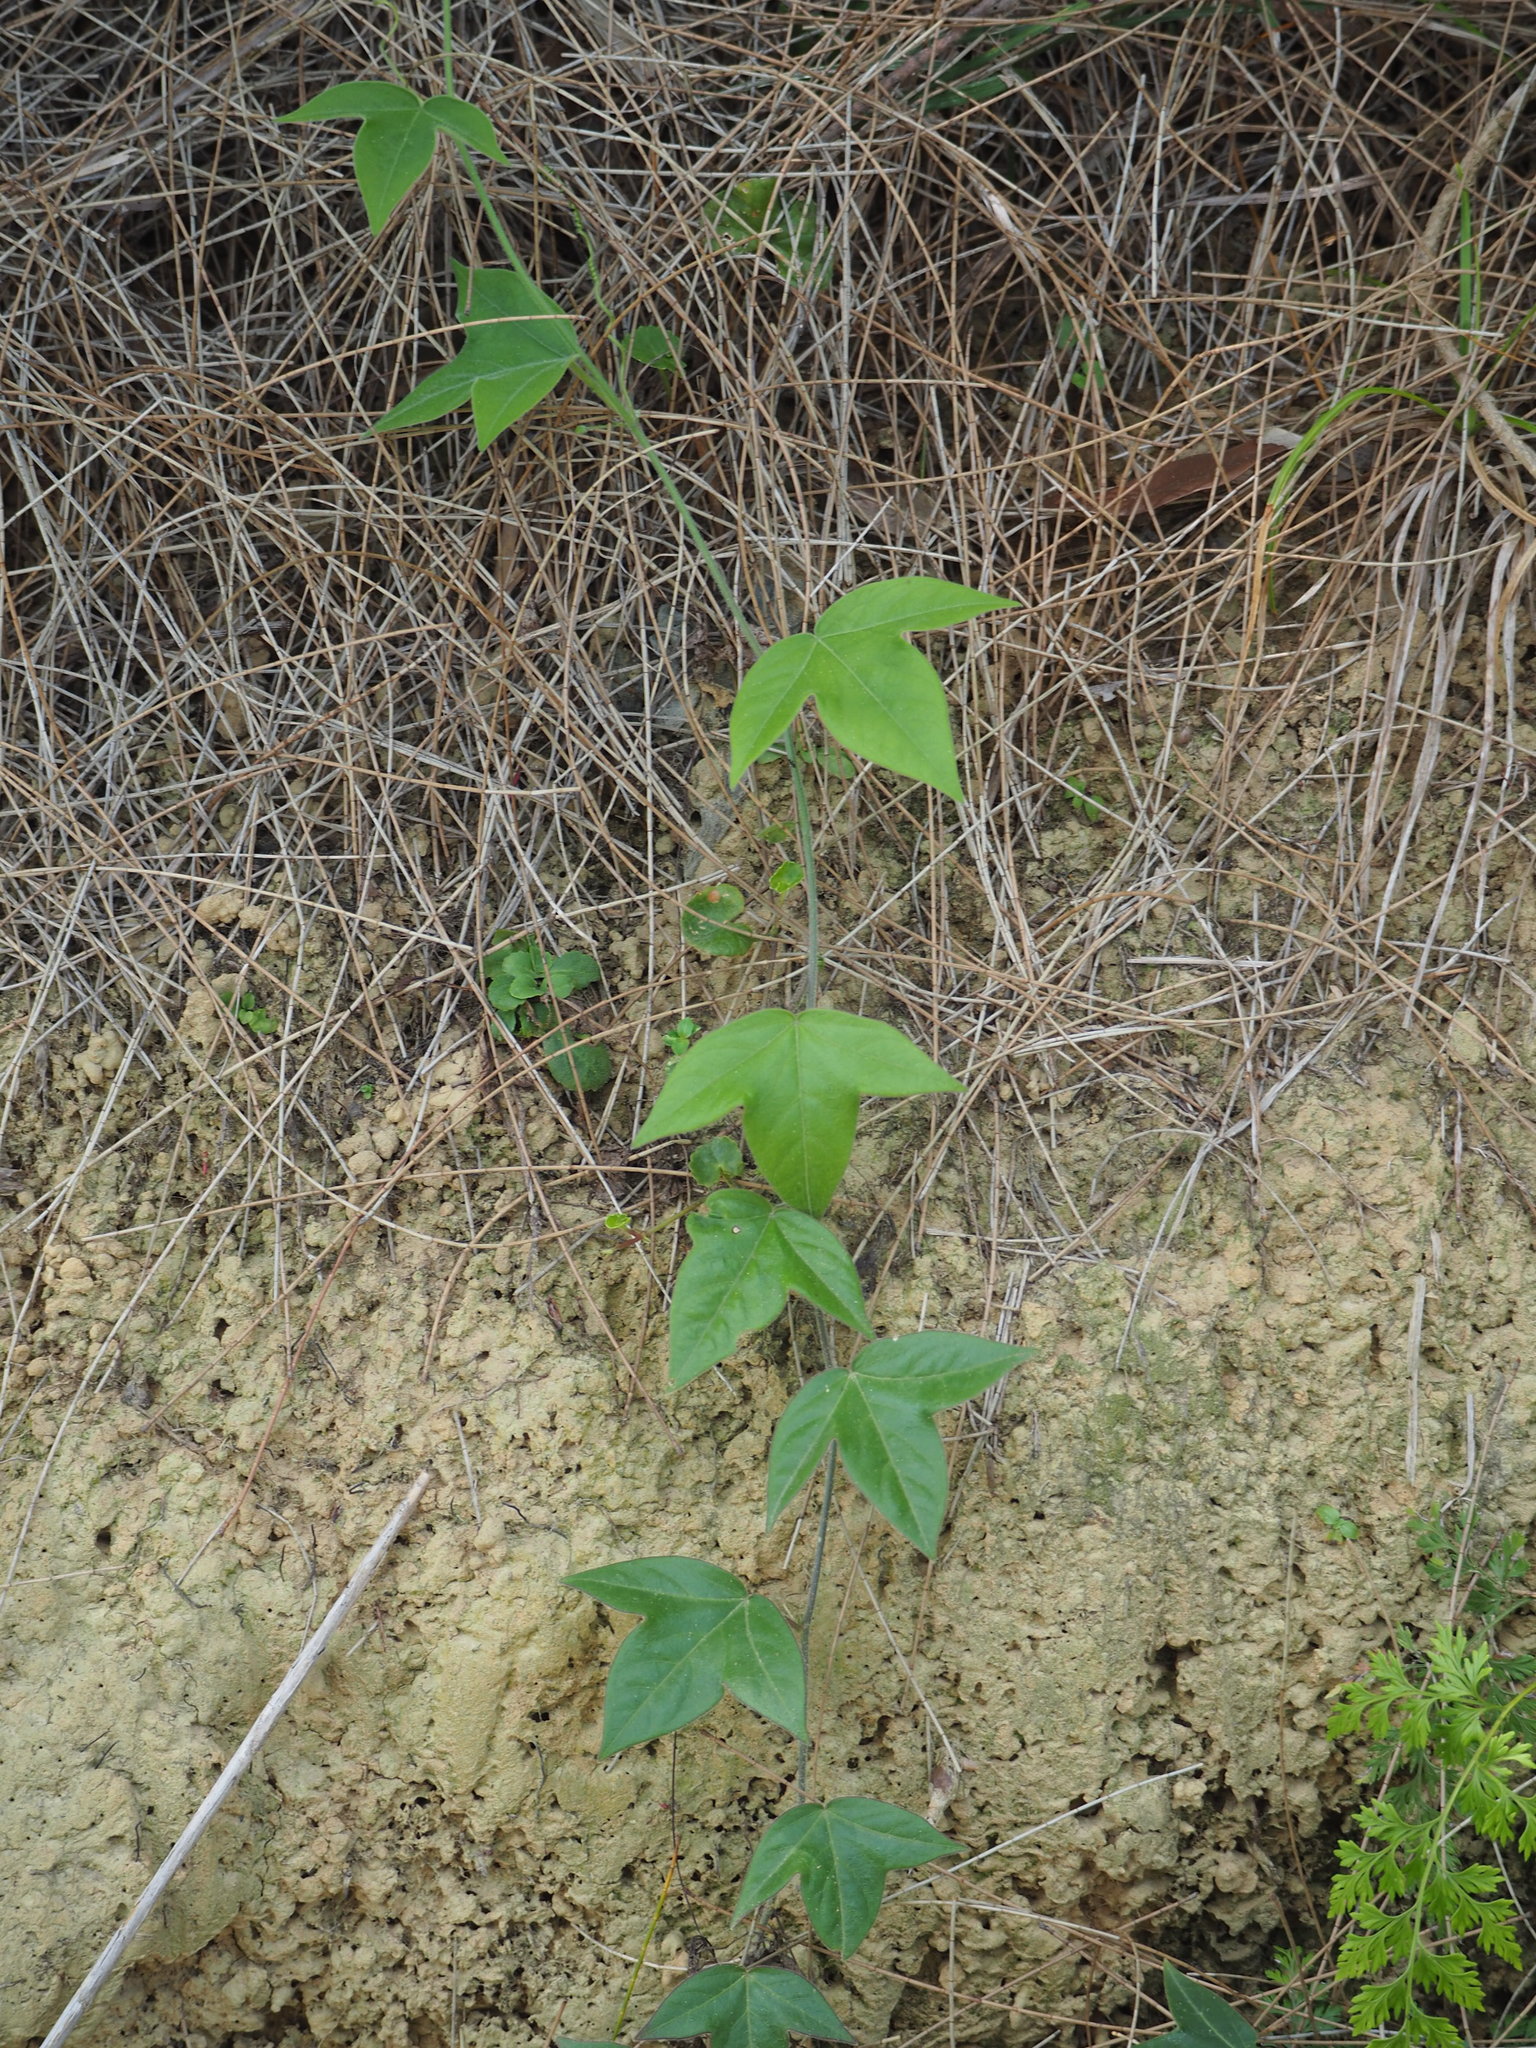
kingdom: Plantae
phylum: Tracheophyta
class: Magnoliopsida
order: Malpighiales
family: Passifloraceae
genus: Passiflora
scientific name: Passiflora suberosa
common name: Wild passionfruit
